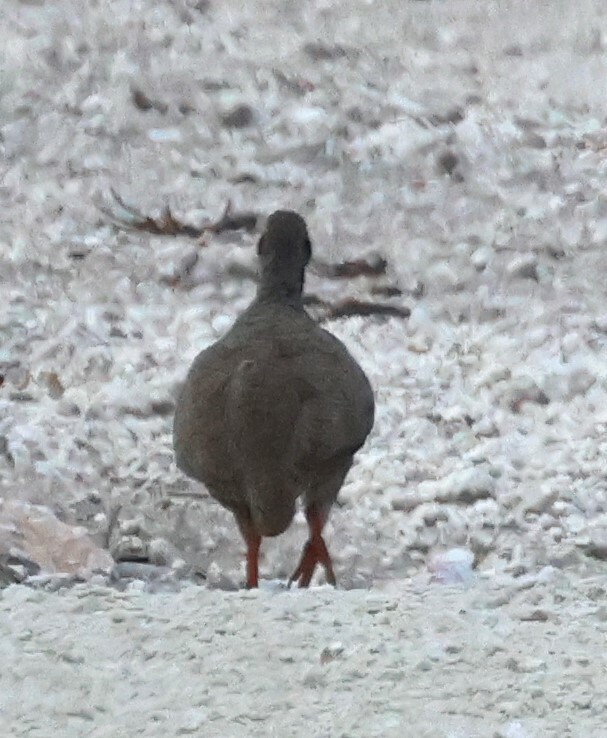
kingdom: Animalia
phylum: Chordata
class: Aves
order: Galliformes
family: Phasianidae
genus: Pternistis
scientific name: Pternistis adspersus
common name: Red-billed spurfowl
